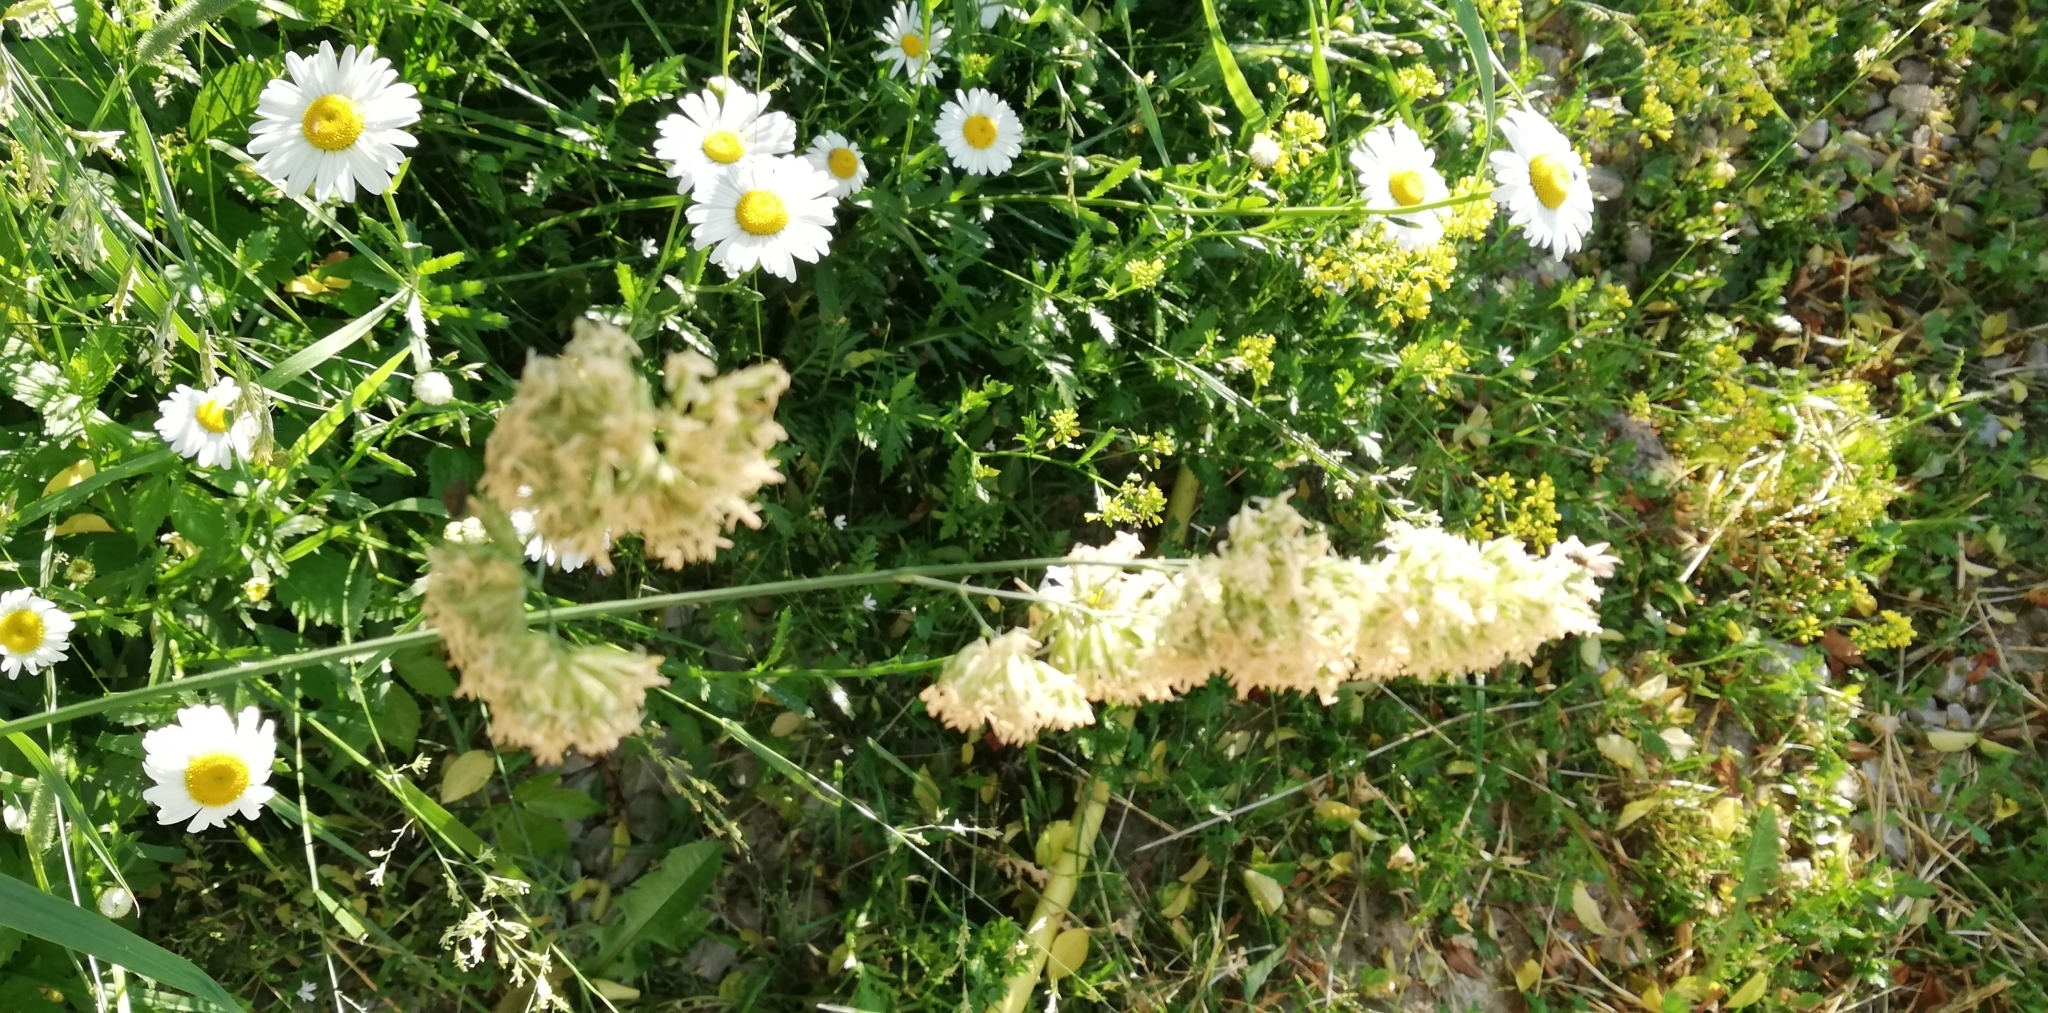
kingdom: Plantae
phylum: Tracheophyta
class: Liliopsida
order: Poales
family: Poaceae
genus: Dactylis
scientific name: Dactylis glomerata
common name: Orchardgrass
